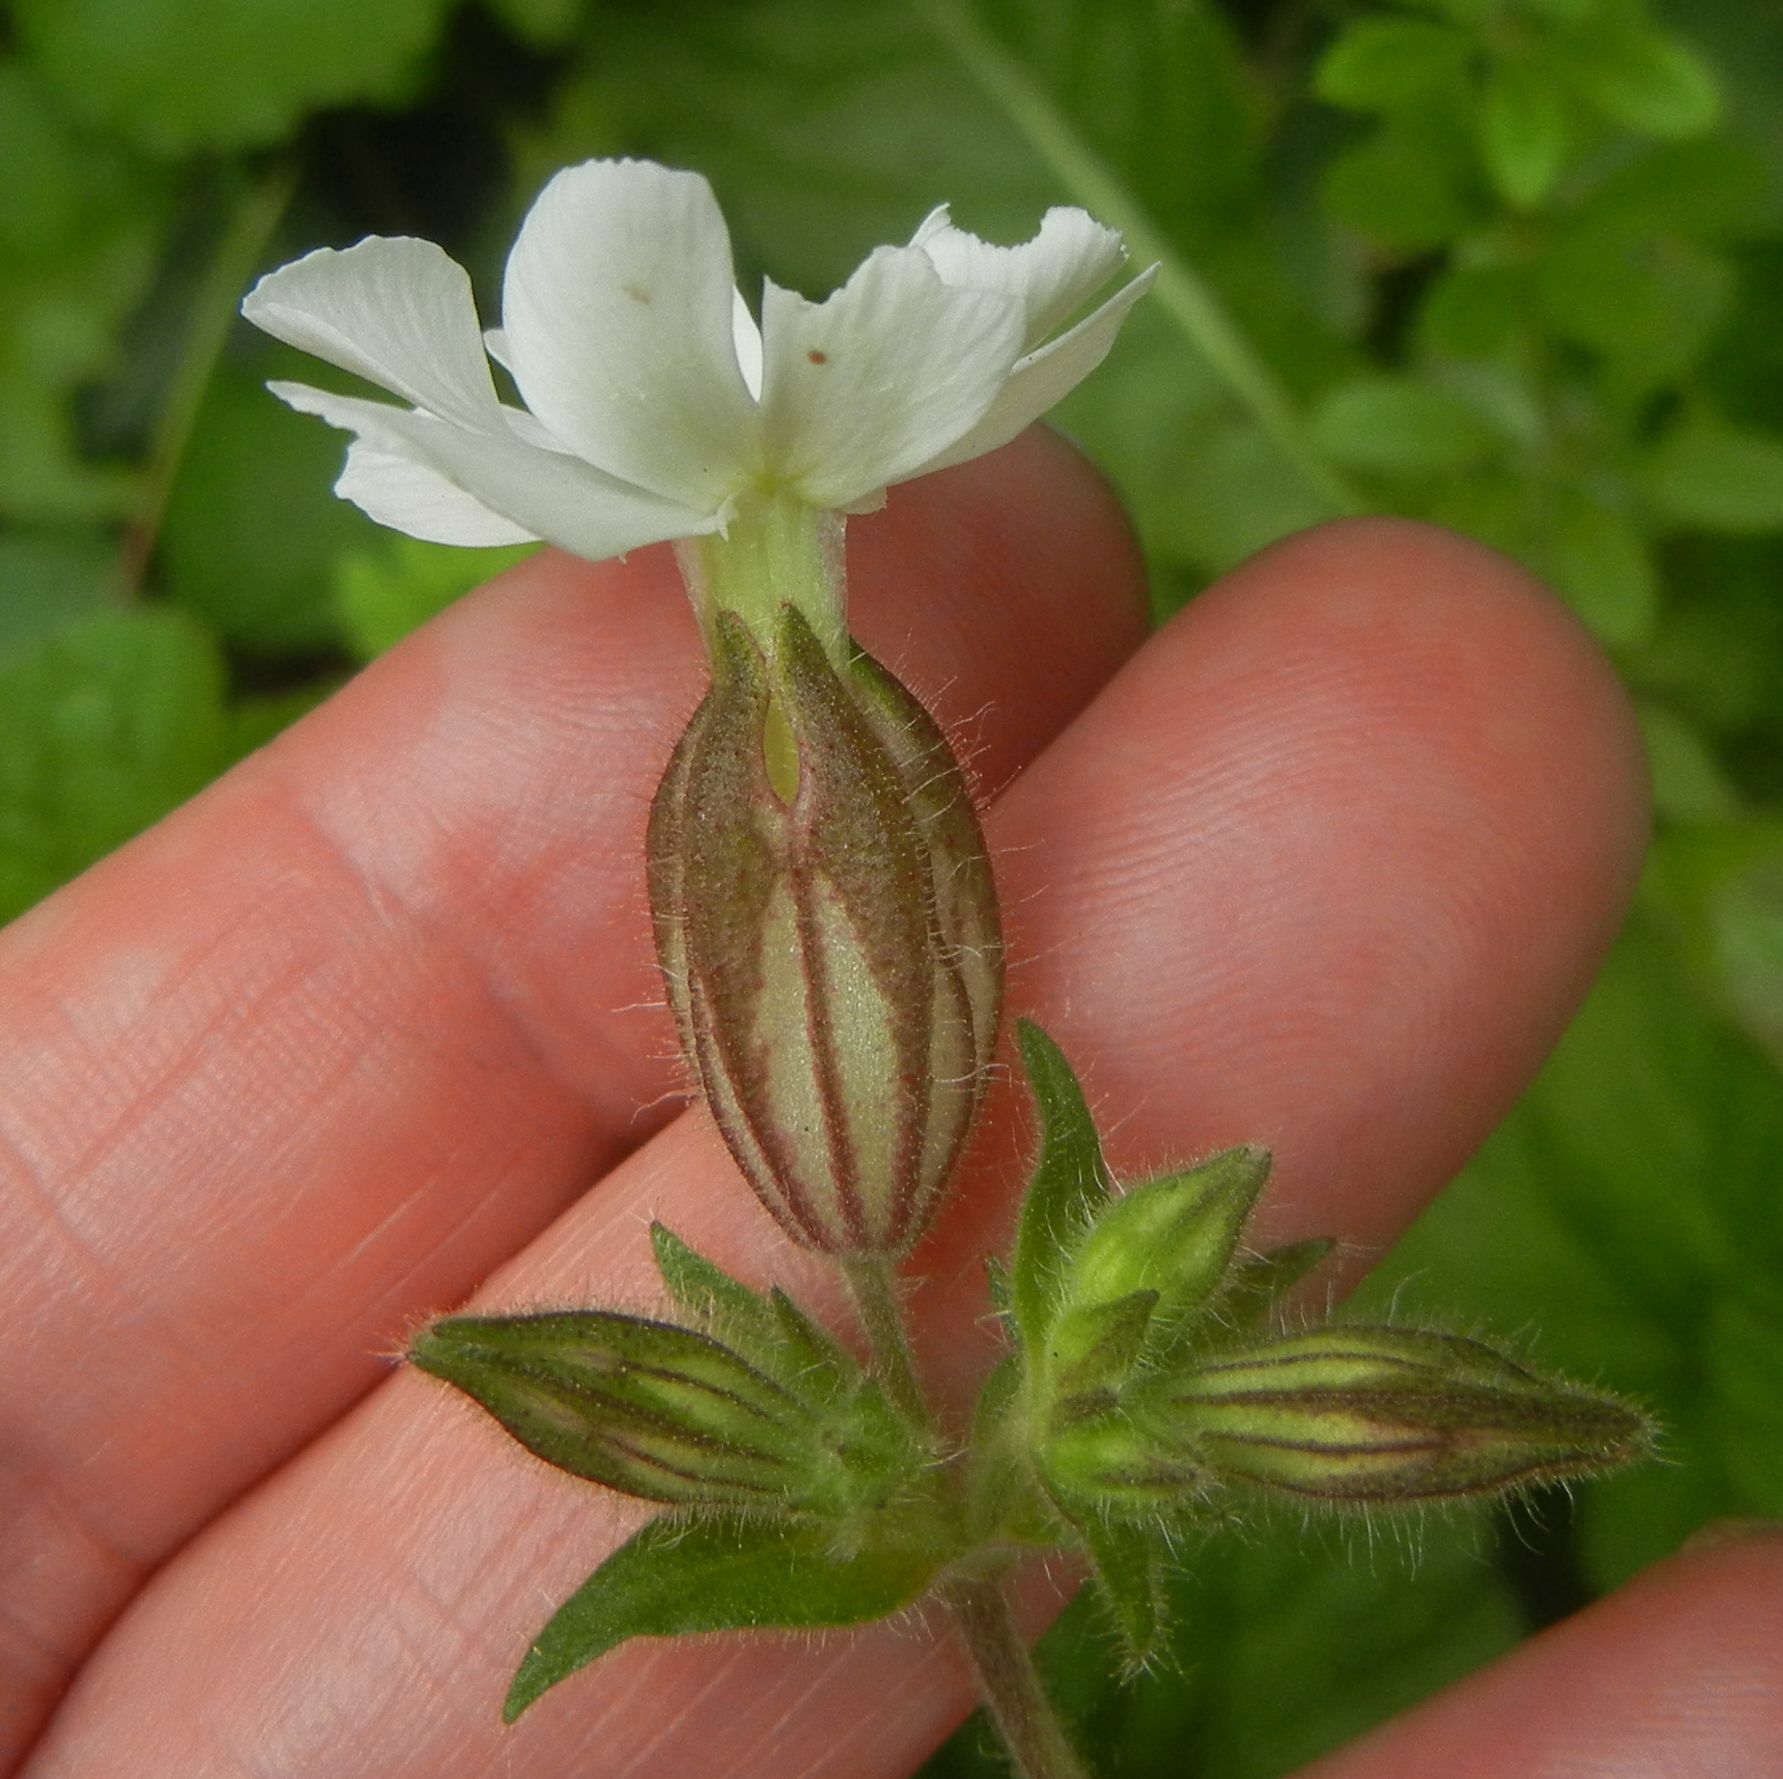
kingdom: Plantae
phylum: Tracheophyta
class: Magnoliopsida
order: Caryophyllales
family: Caryophyllaceae
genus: Silene
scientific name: Silene latifolia
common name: White campion
